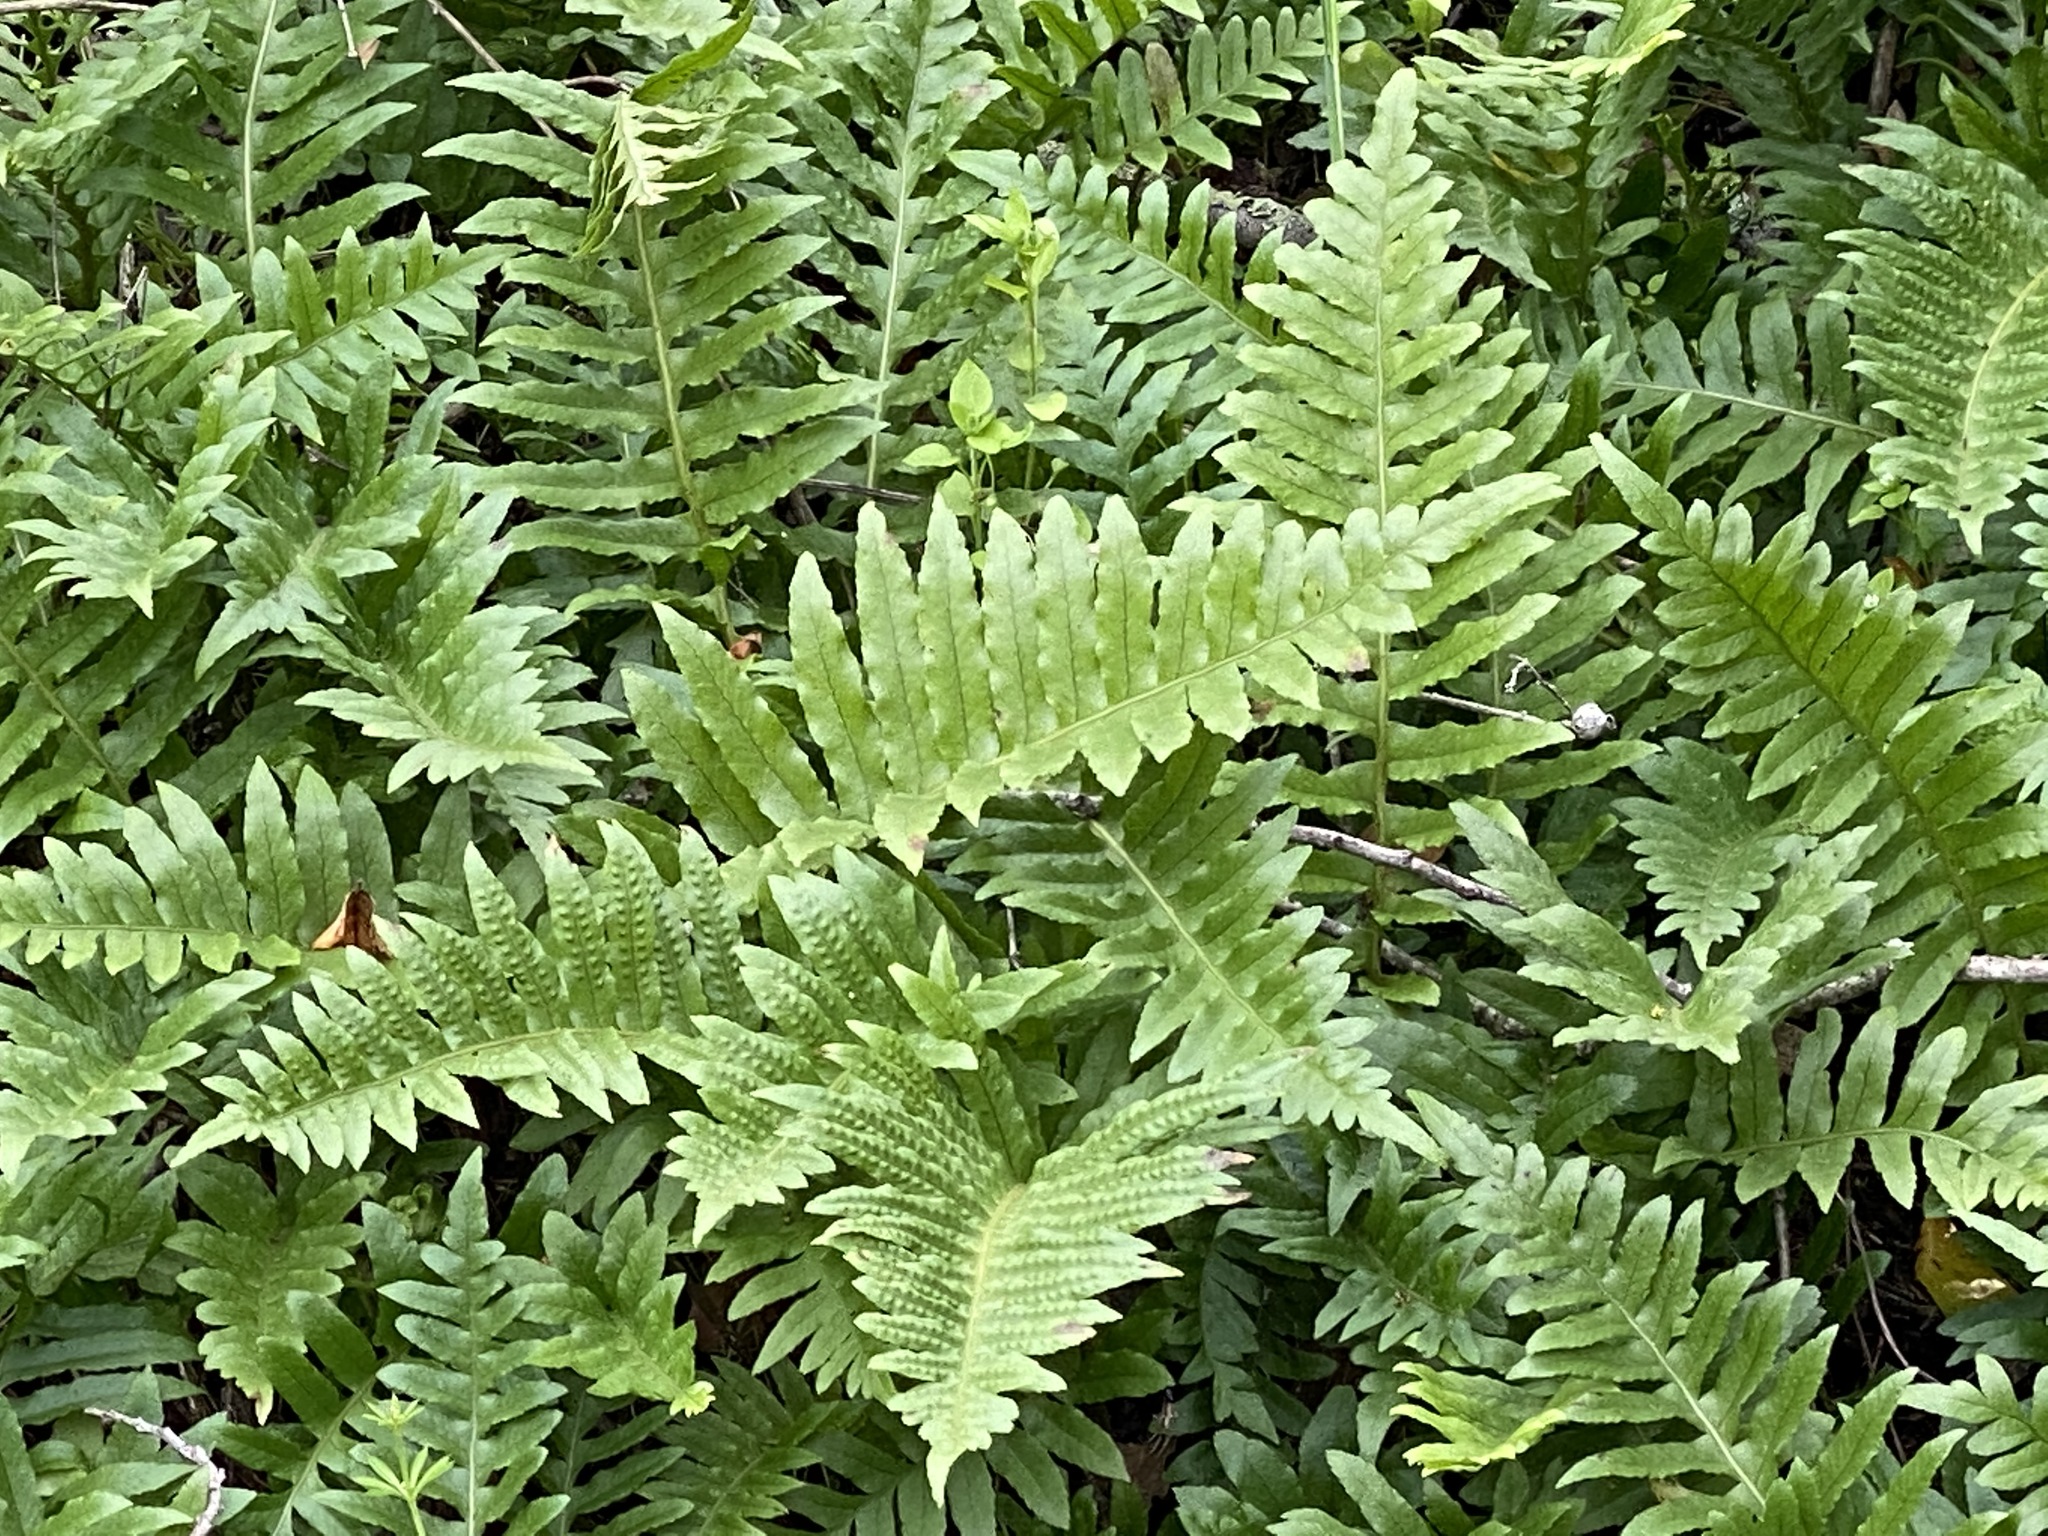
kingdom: Plantae
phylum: Tracheophyta
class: Polypodiopsida
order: Polypodiales
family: Polypodiaceae
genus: Polypodium
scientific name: Polypodium californicum
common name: California polypody
